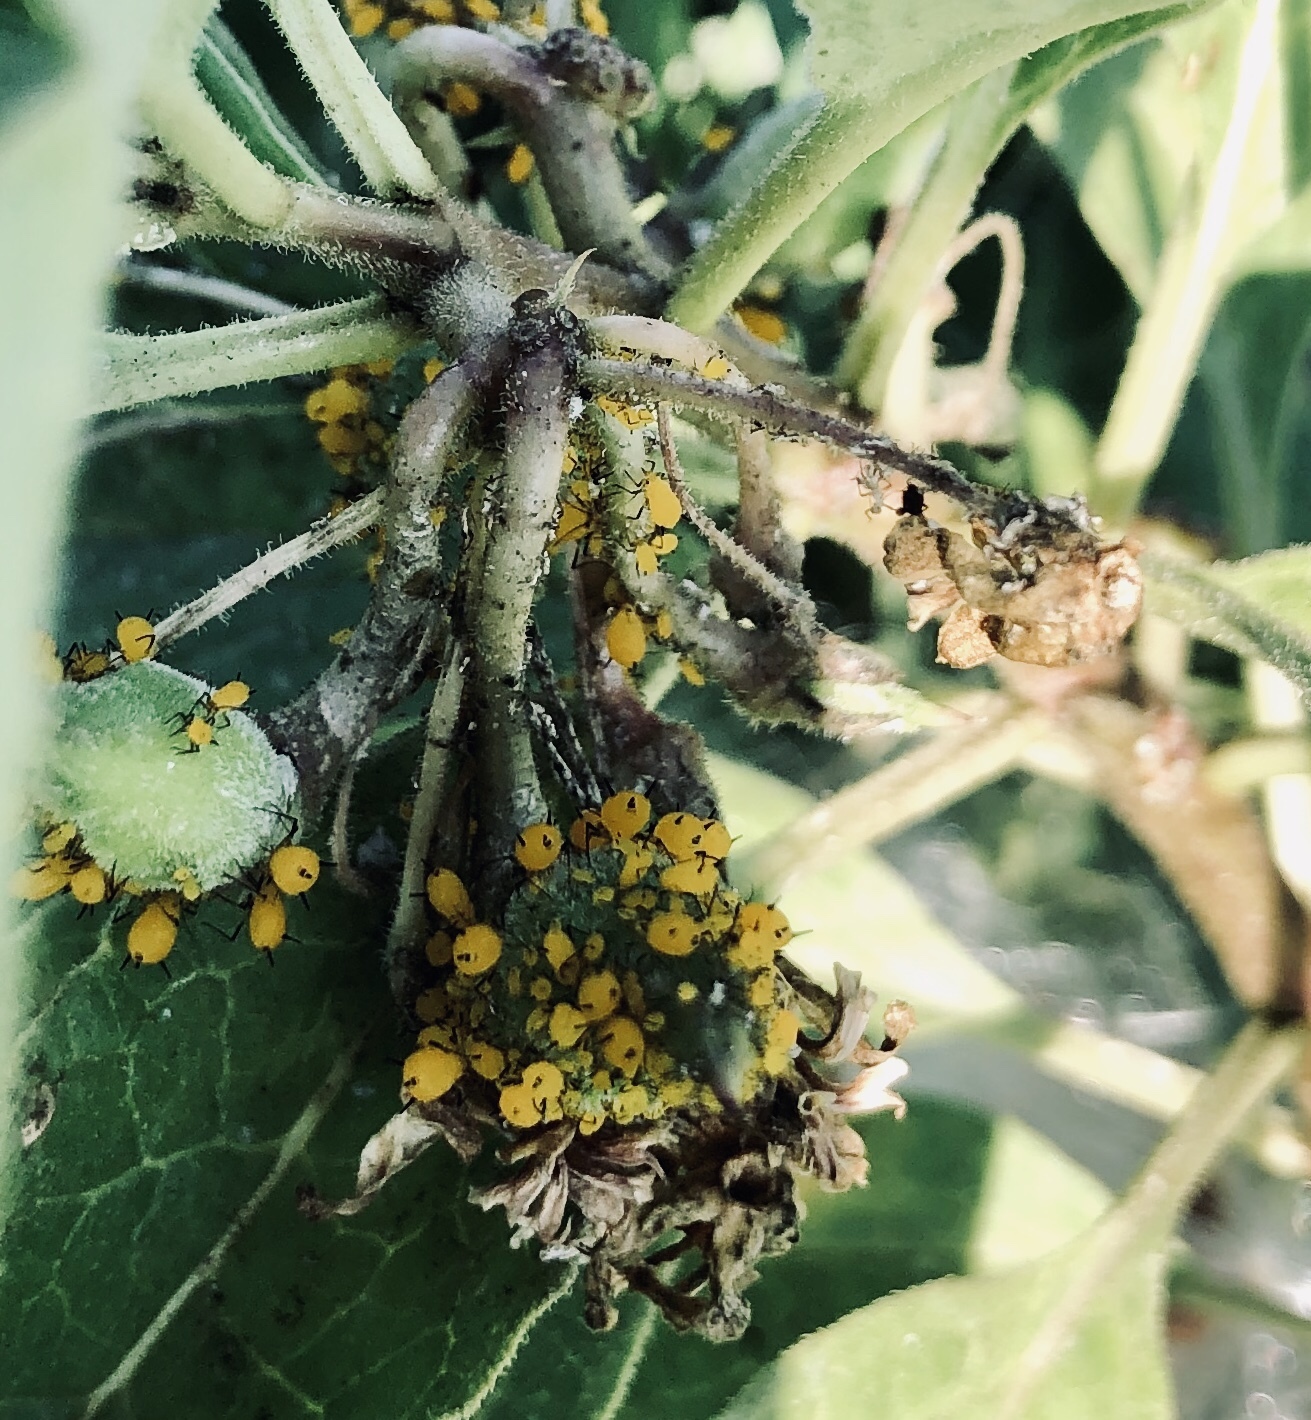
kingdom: Animalia
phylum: Arthropoda
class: Insecta
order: Hemiptera
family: Aphididae
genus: Aphis
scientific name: Aphis nerii
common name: Oleander aphid
